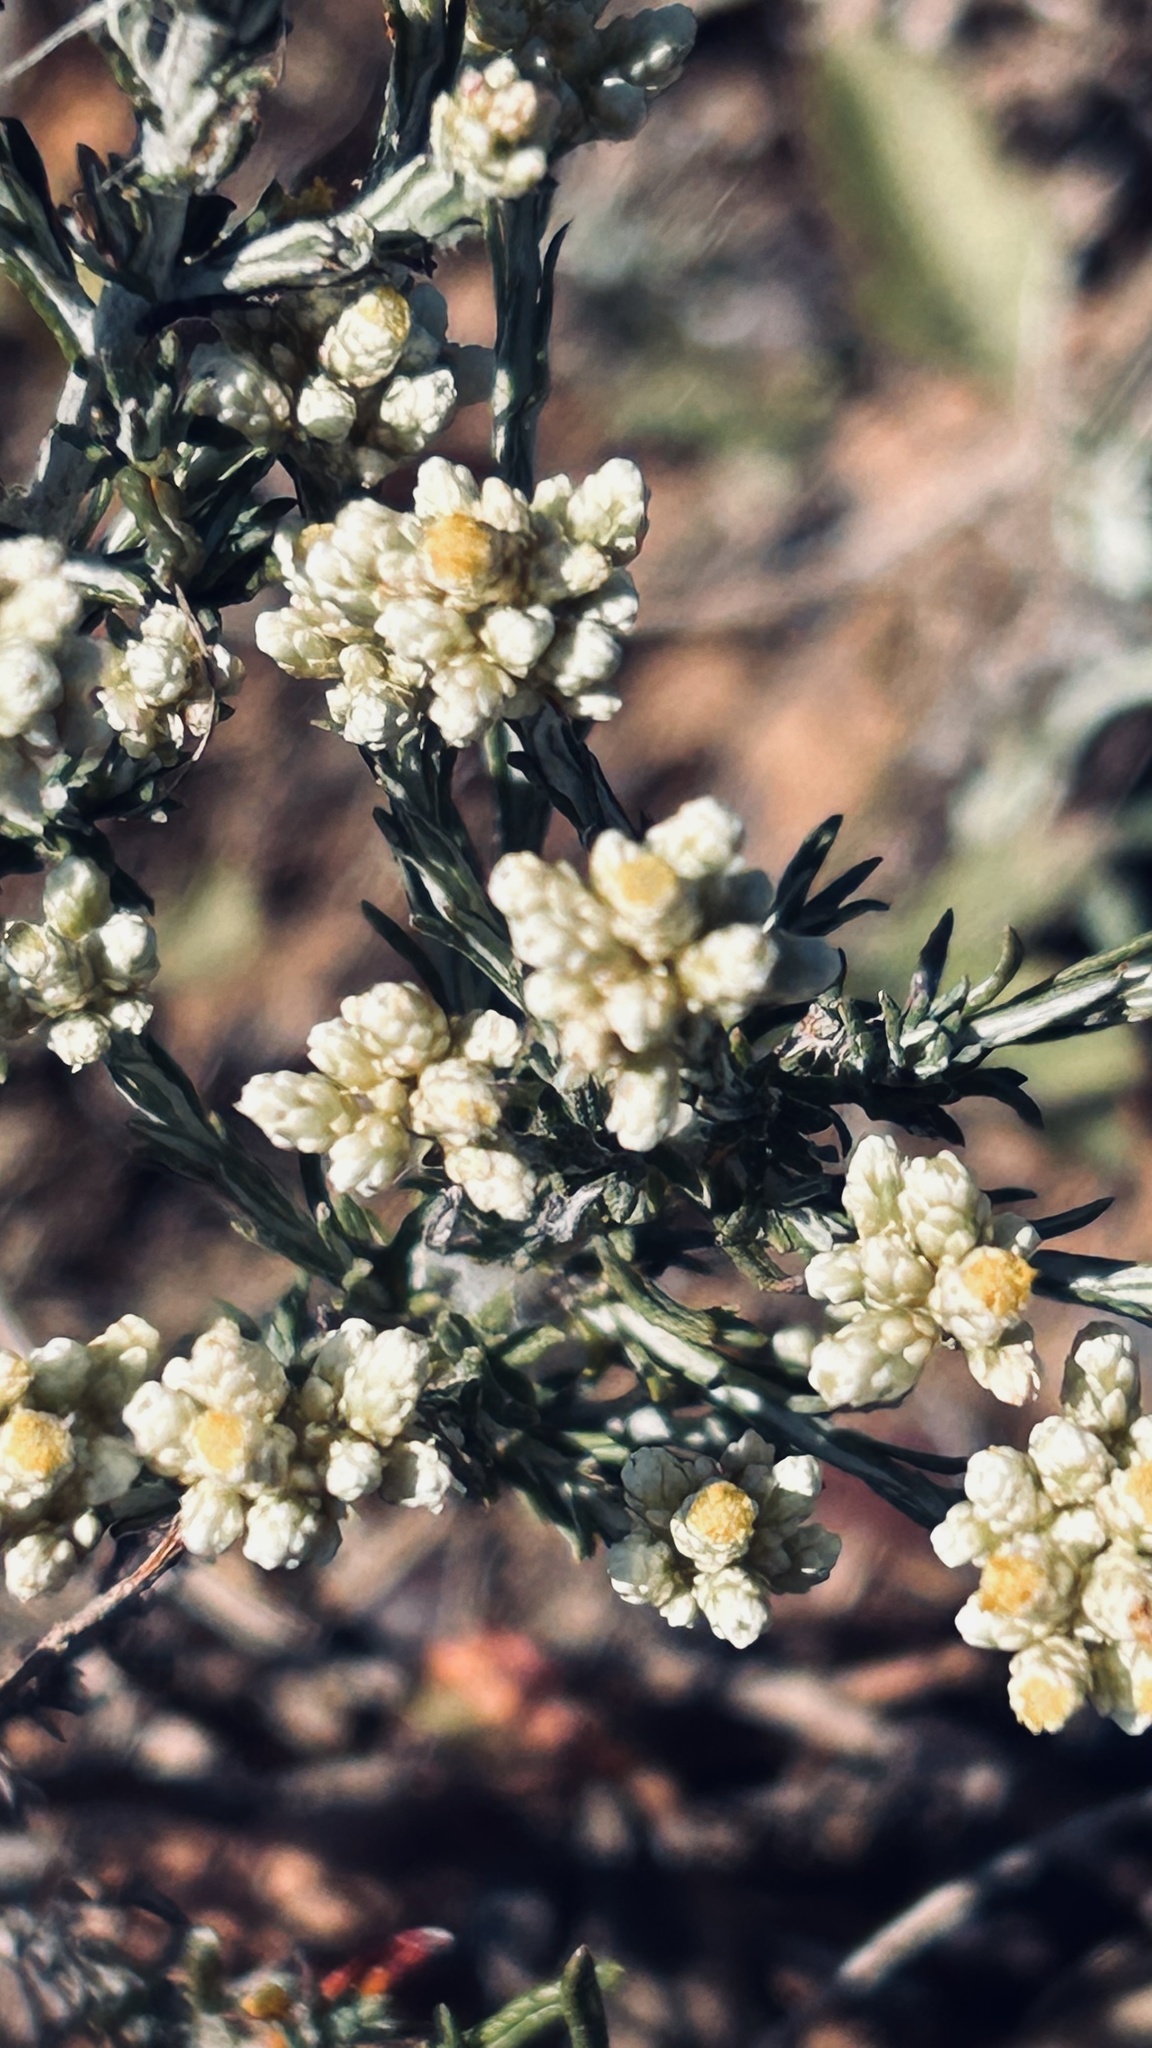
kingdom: Plantae
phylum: Tracheophyta
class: Magnoliopsida
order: Asterales
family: Asteraceae
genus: Helichrysum
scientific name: Helichrysum rosum
